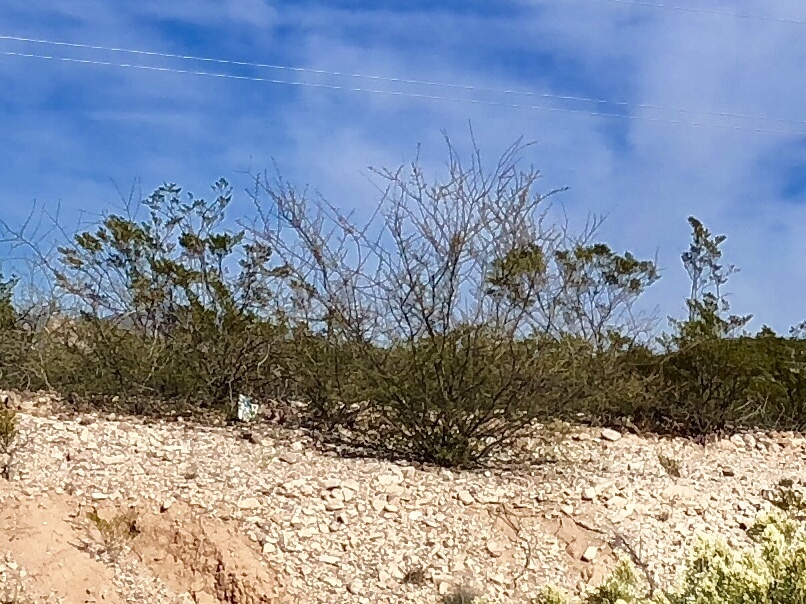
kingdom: Plantae
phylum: Tracheophyta
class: Magnoliopsida
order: Zygophyllales
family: Zygophyllaceae
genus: Larrea
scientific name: Larrea tridentata
